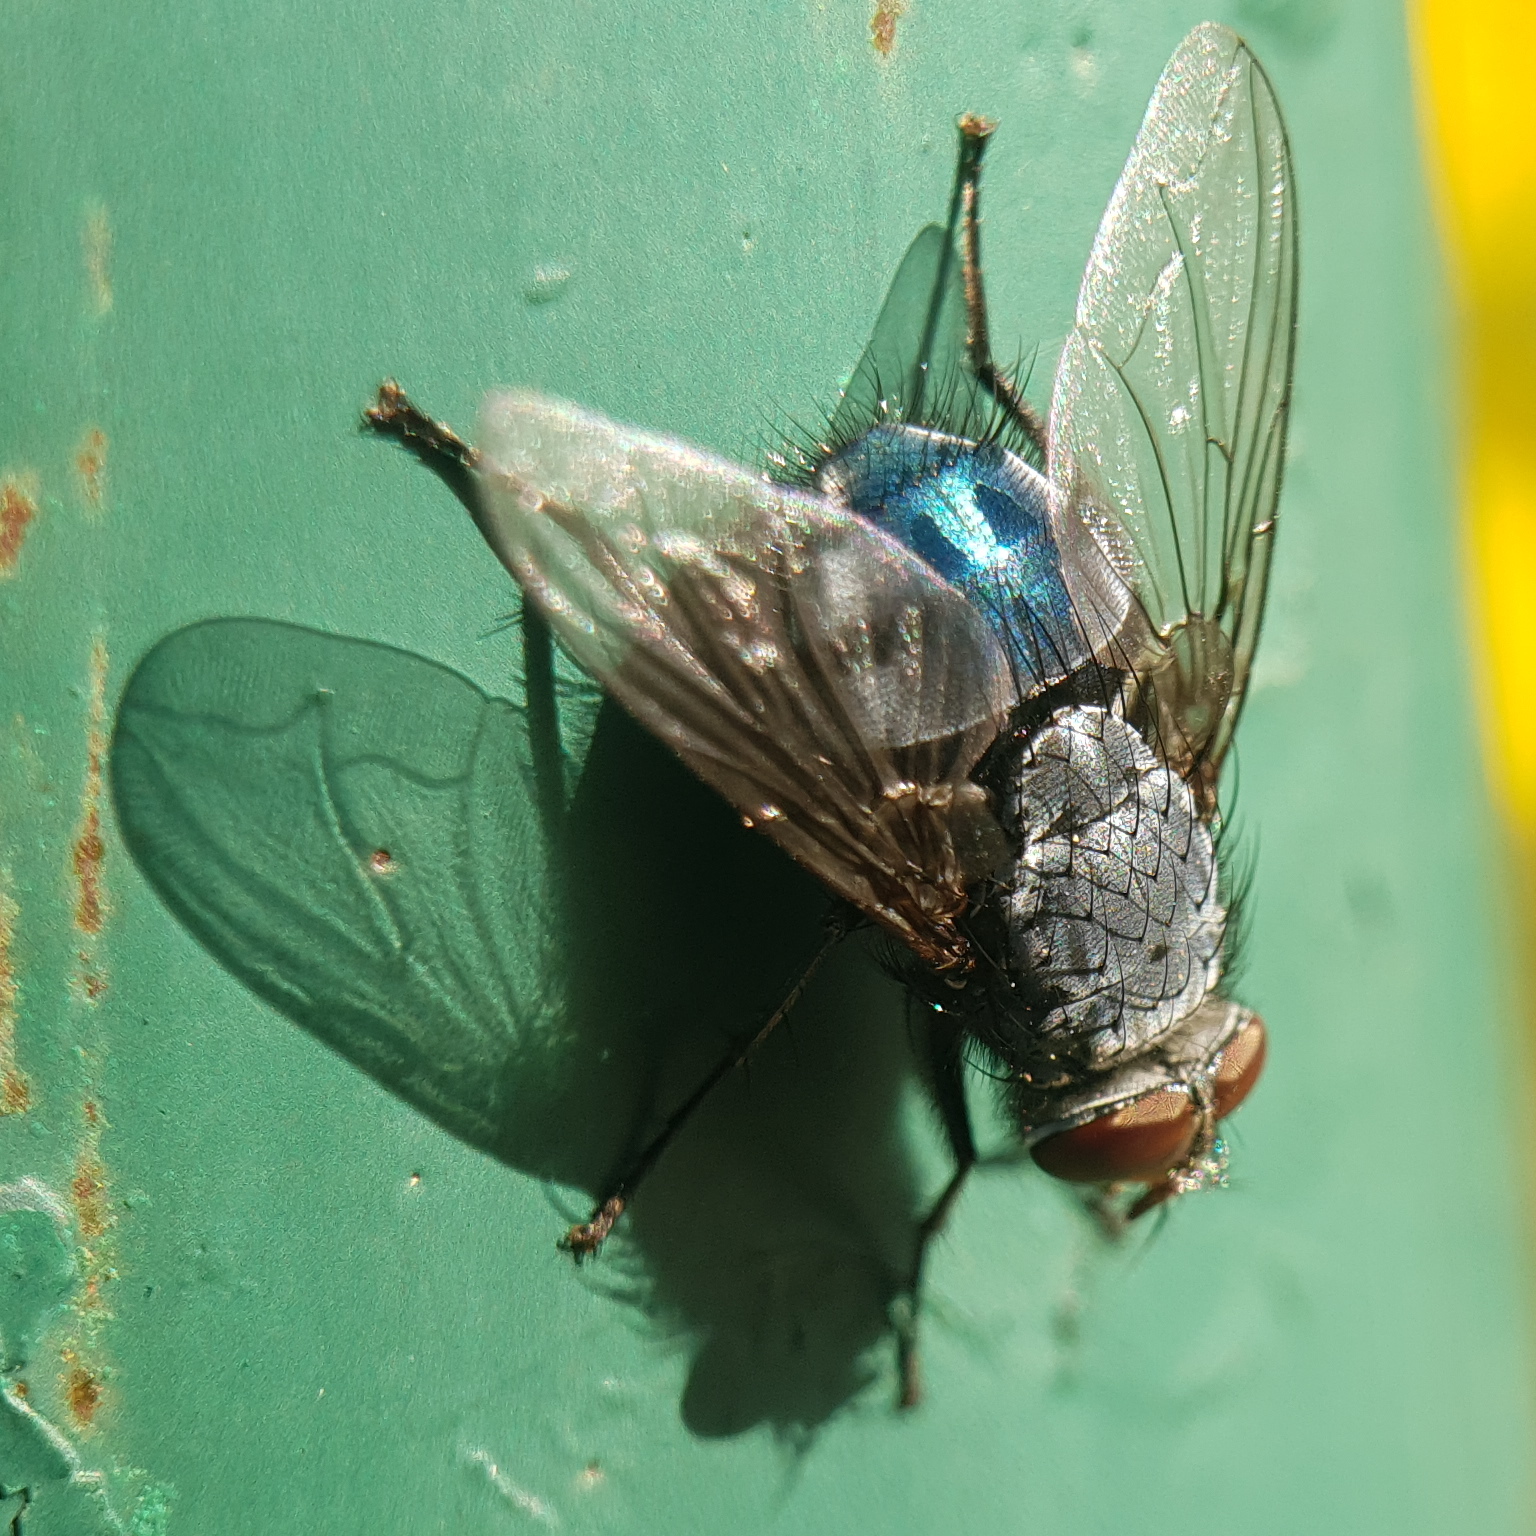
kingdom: Animalia
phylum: Arthropoda
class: Insecta
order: Diptera
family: Calliphoridae
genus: Calliphora
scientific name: Calliphora vicina
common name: Common blow flie
